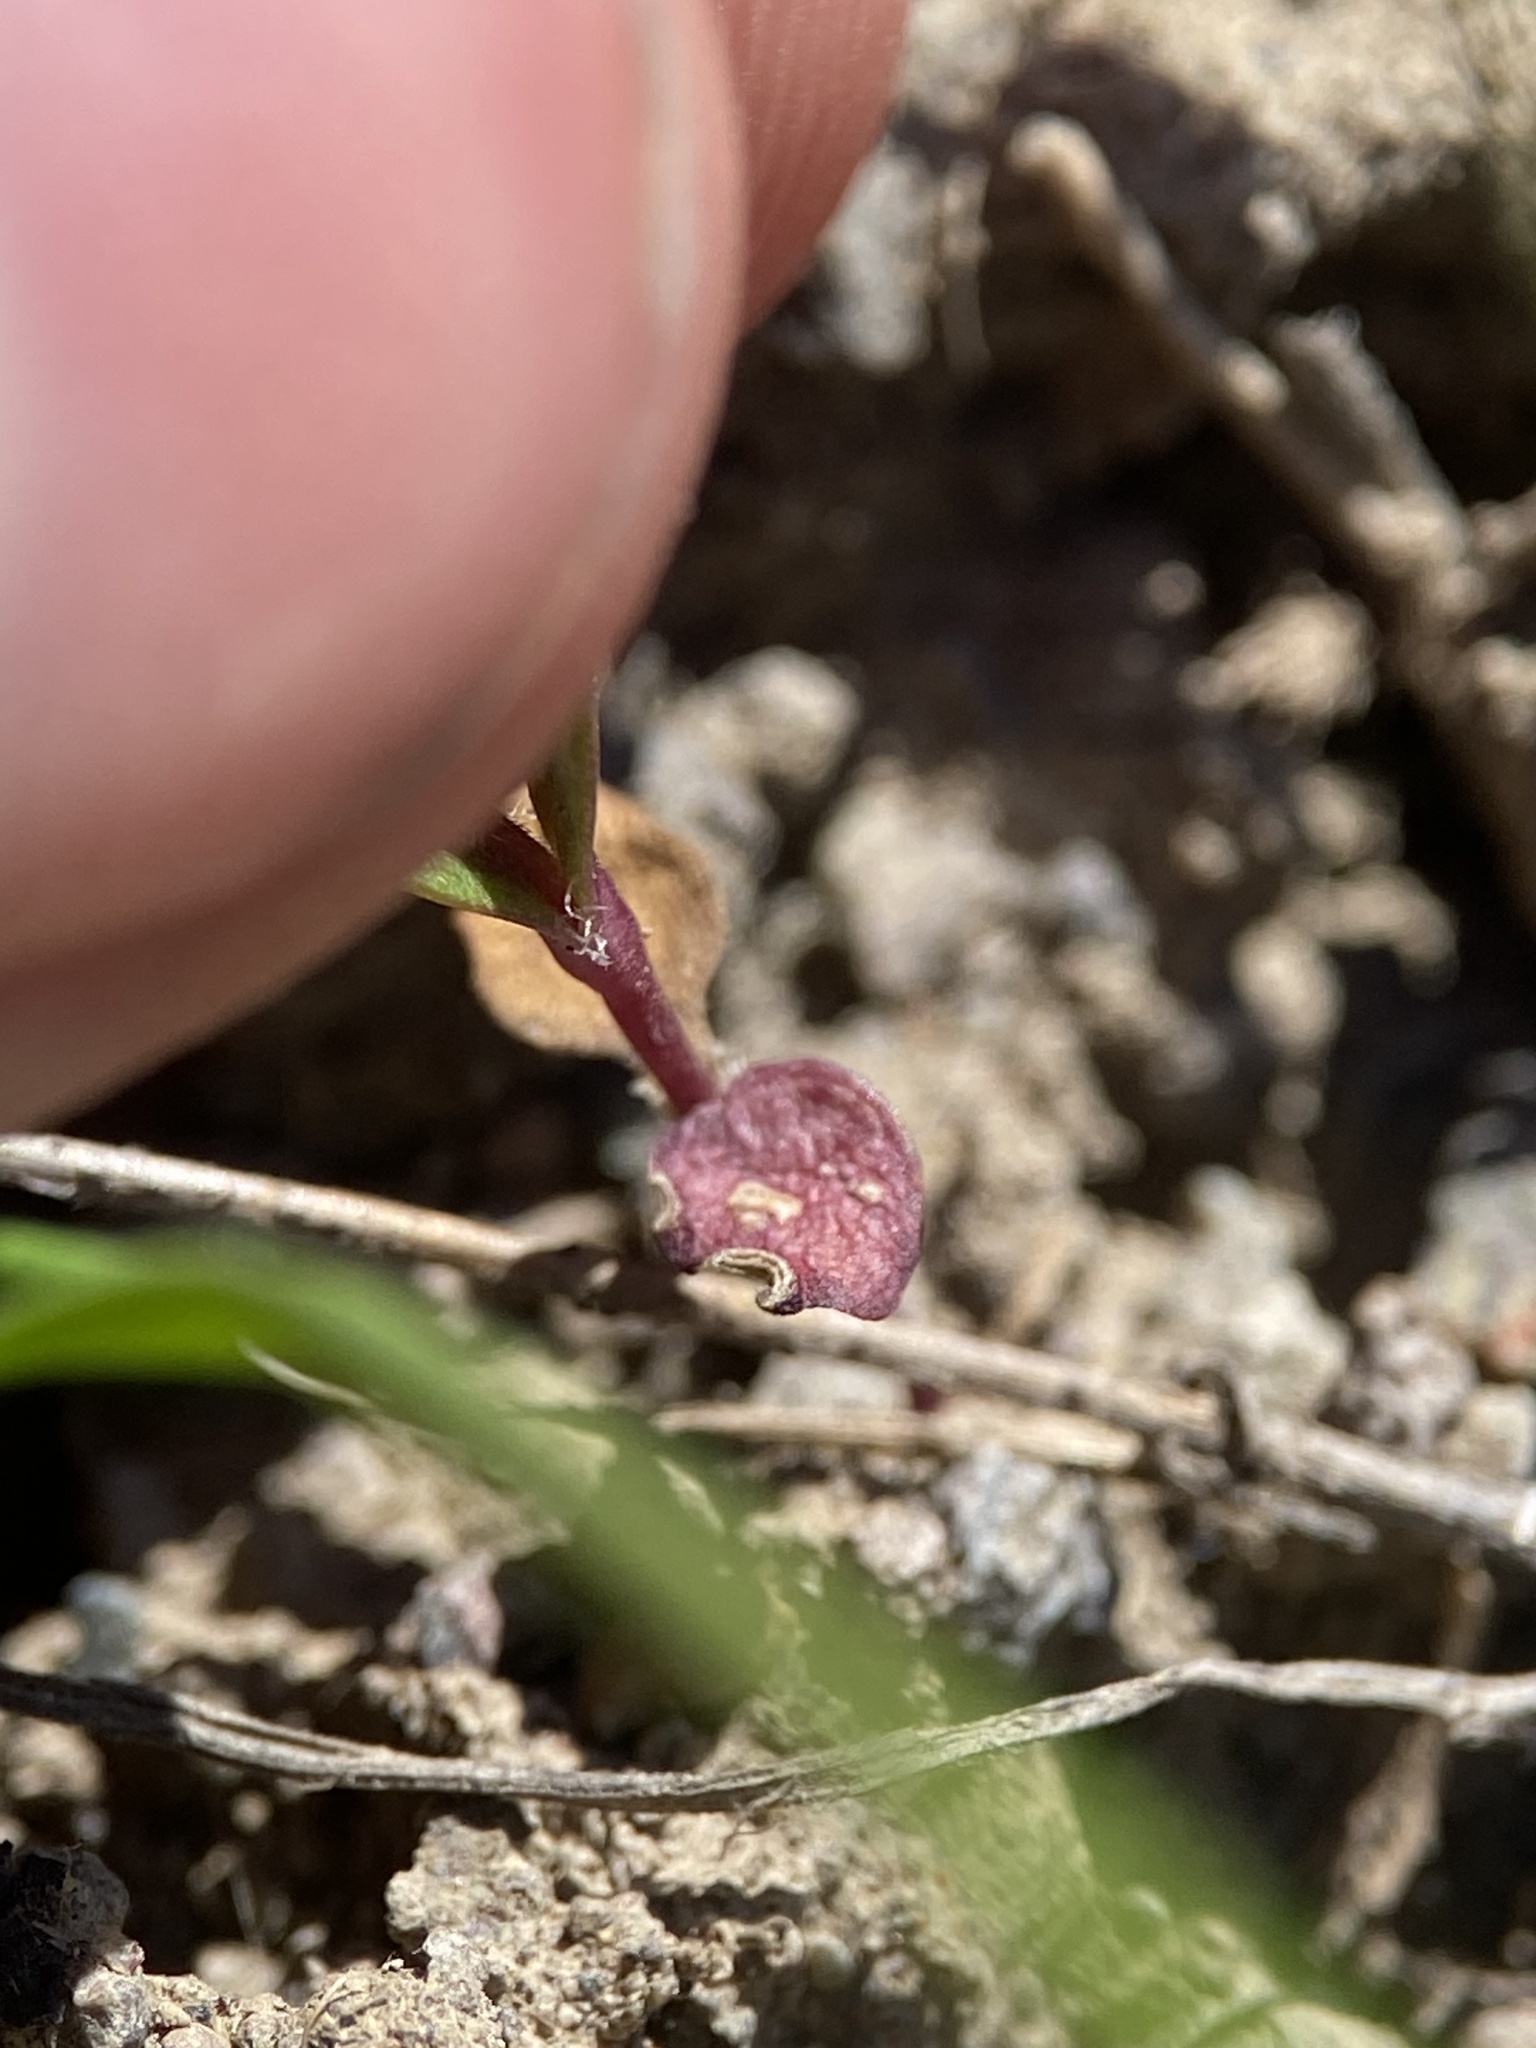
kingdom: Plantae
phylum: Tracheophyta
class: Magnoliopsida
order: Ericales
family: Polemoniaceae
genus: Phlox
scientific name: Phlox gracilis
